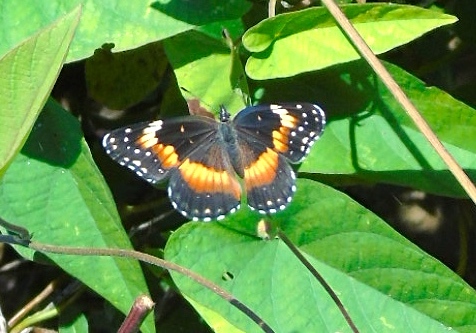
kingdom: Animalia
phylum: Arthropoda
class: Insecta
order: Lepidoptera
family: Nymphalidae
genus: Chlosyne
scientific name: Chlosyne lacinia
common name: Bordered patch
